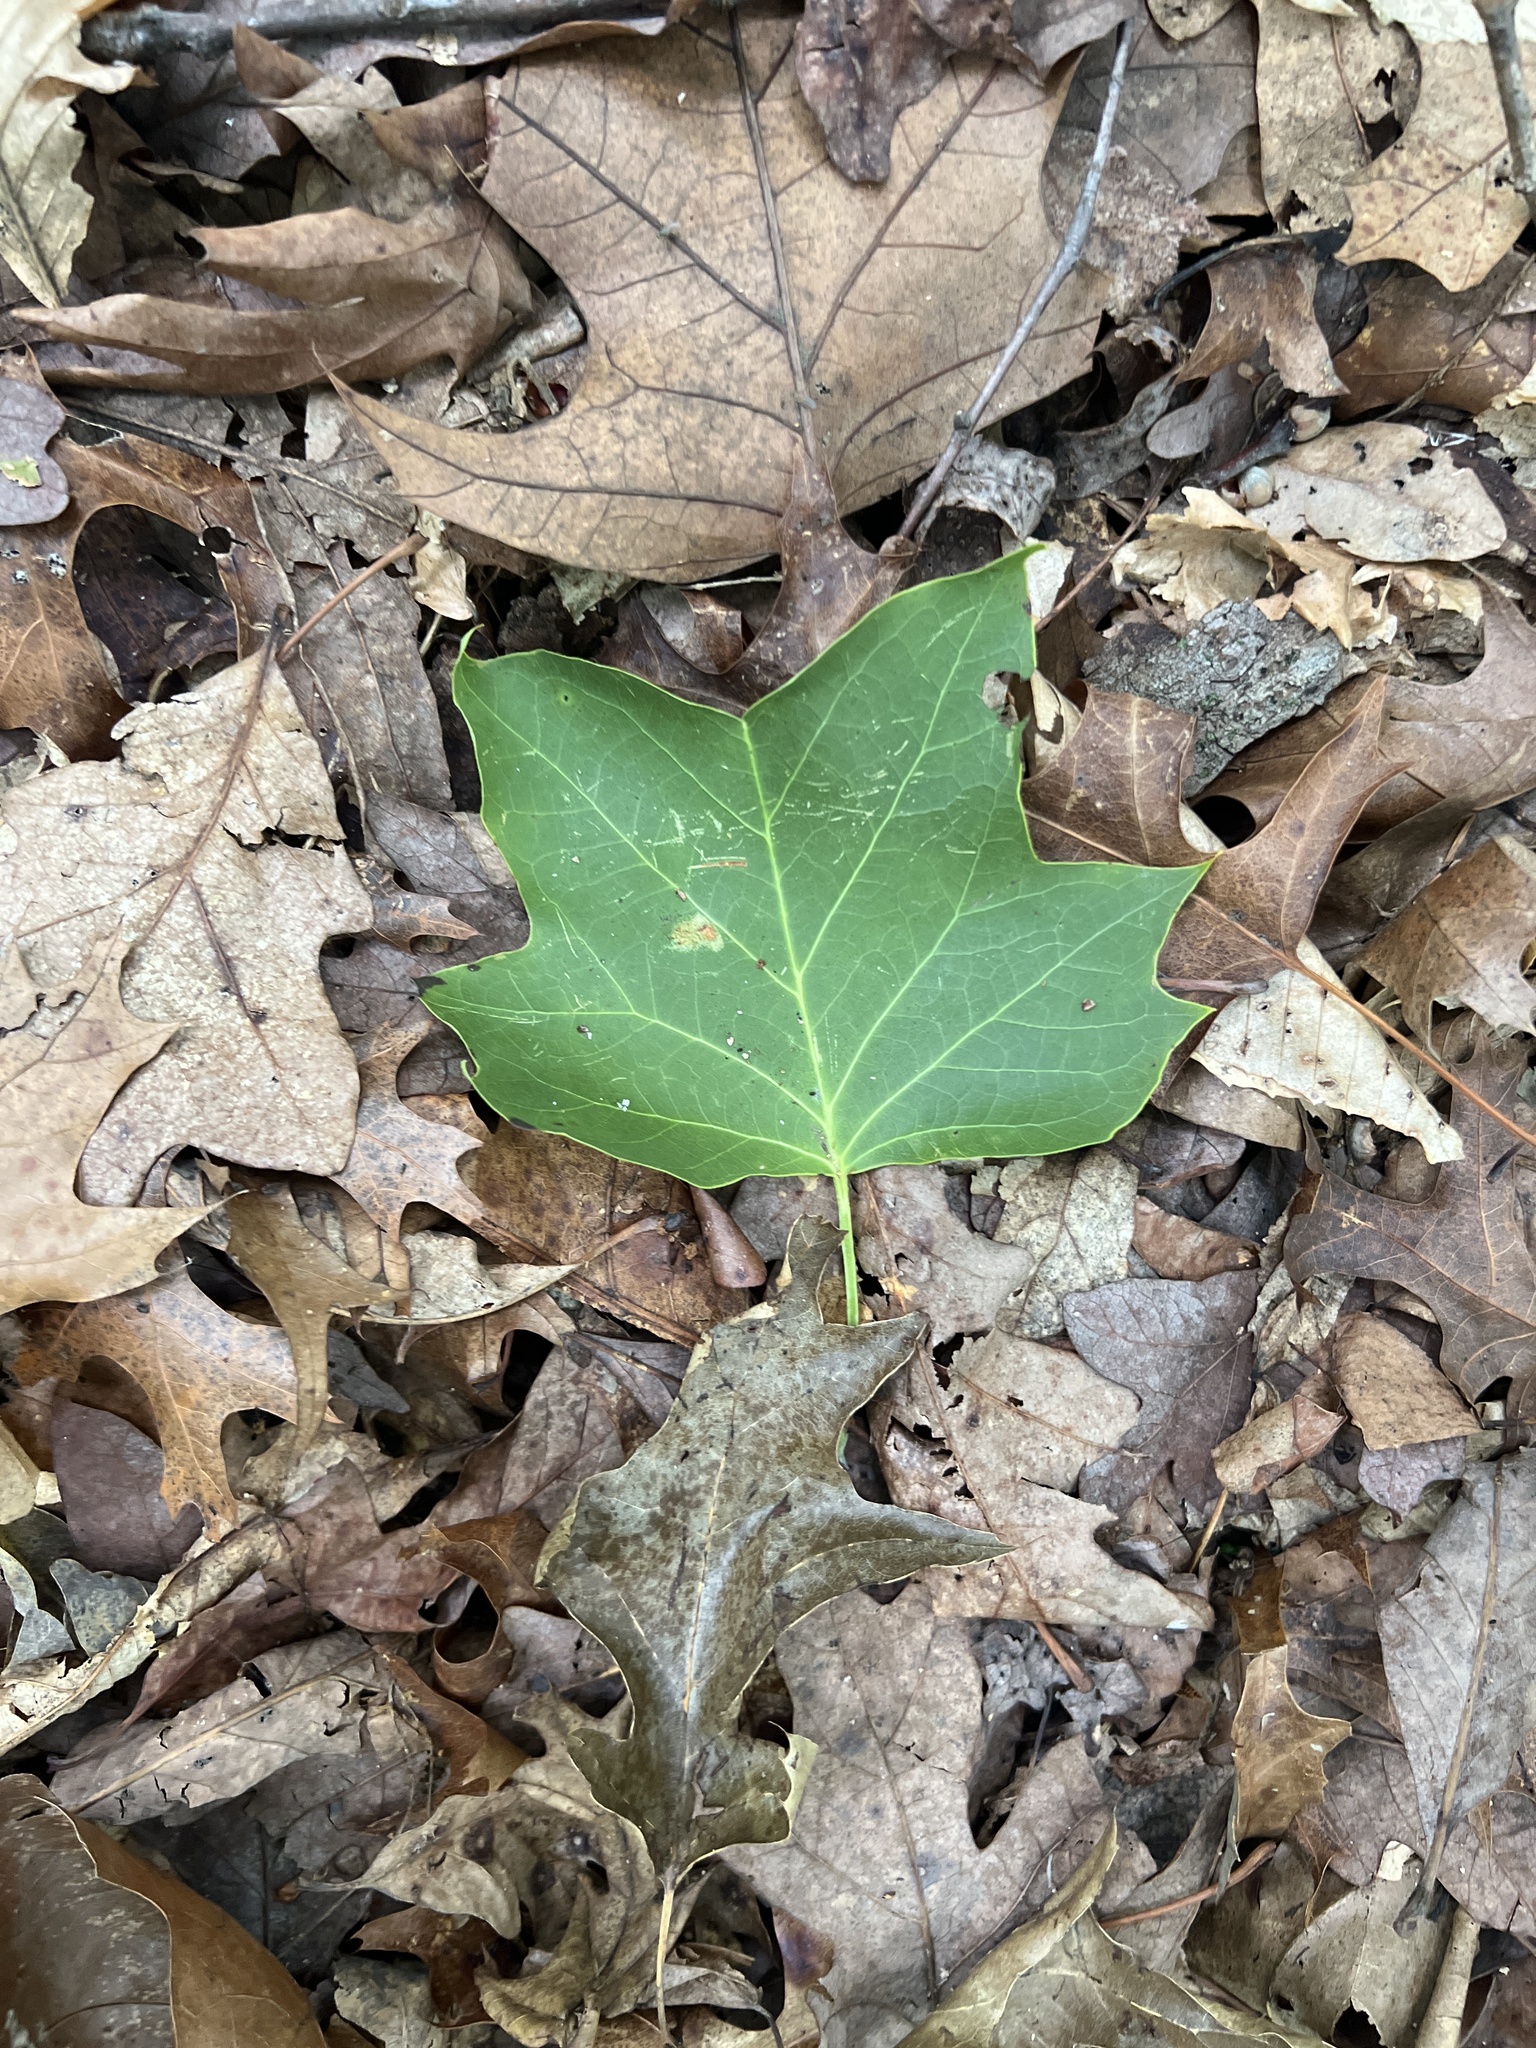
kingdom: Plantae
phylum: Tracheophyta
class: Magnoliopsida
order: Magnoliales
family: Magnoliaceae
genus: Liriodendron
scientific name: Liriodendron tulipifera
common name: Tulip tree
